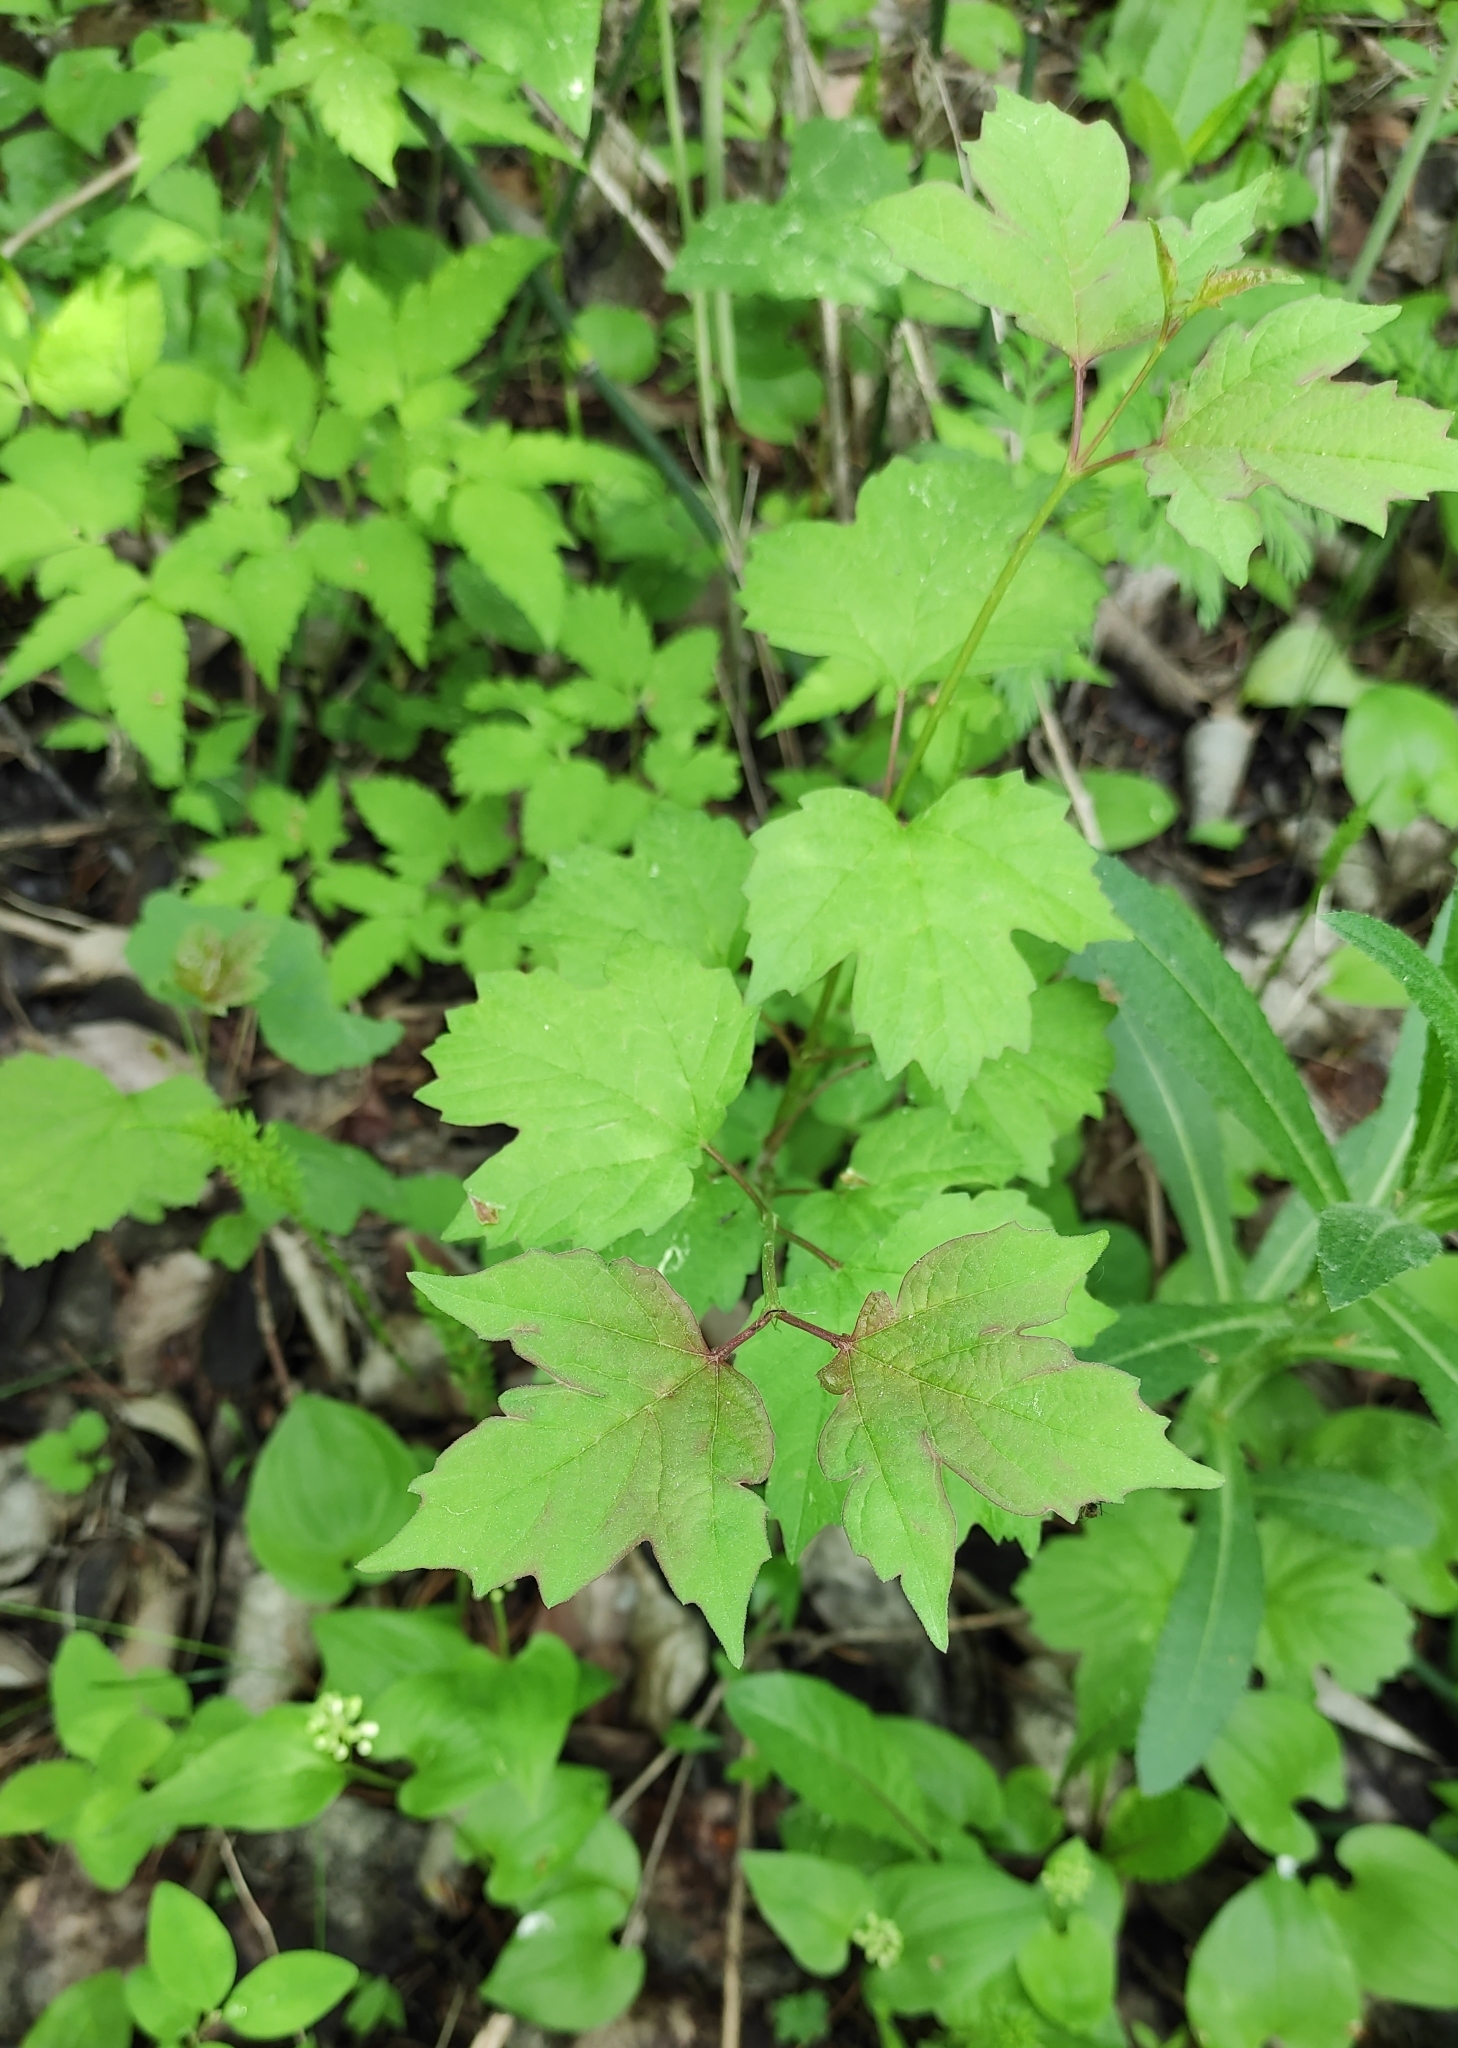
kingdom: Plantae
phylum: Tracheophyta
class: Magnoliopsida
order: Dipsacales
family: Viburnaceae
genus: Viburnum
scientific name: Viburnum opulus
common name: Guelder-rose
